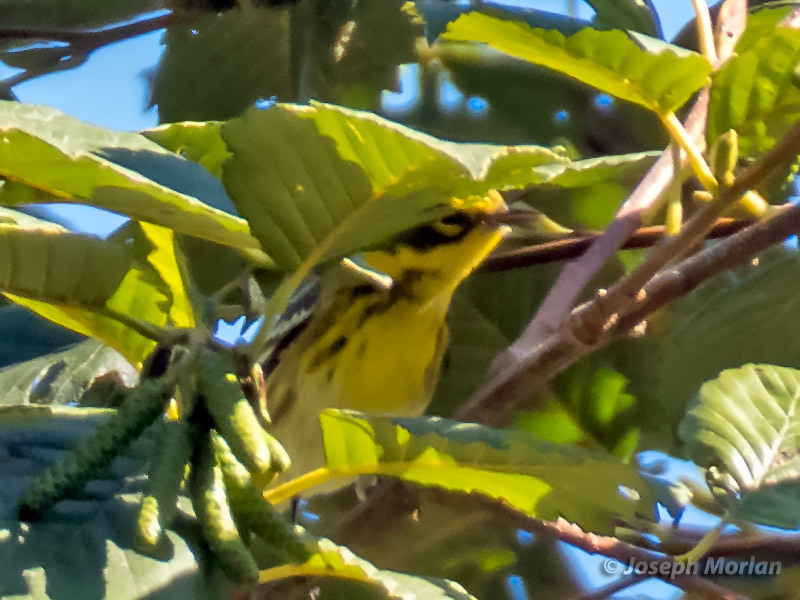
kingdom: Animalia
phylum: Chordata
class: Aves
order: Passeriformes
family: Parulidae
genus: Setophaga
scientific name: Setophaga townsendi
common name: Townsend's warbler
